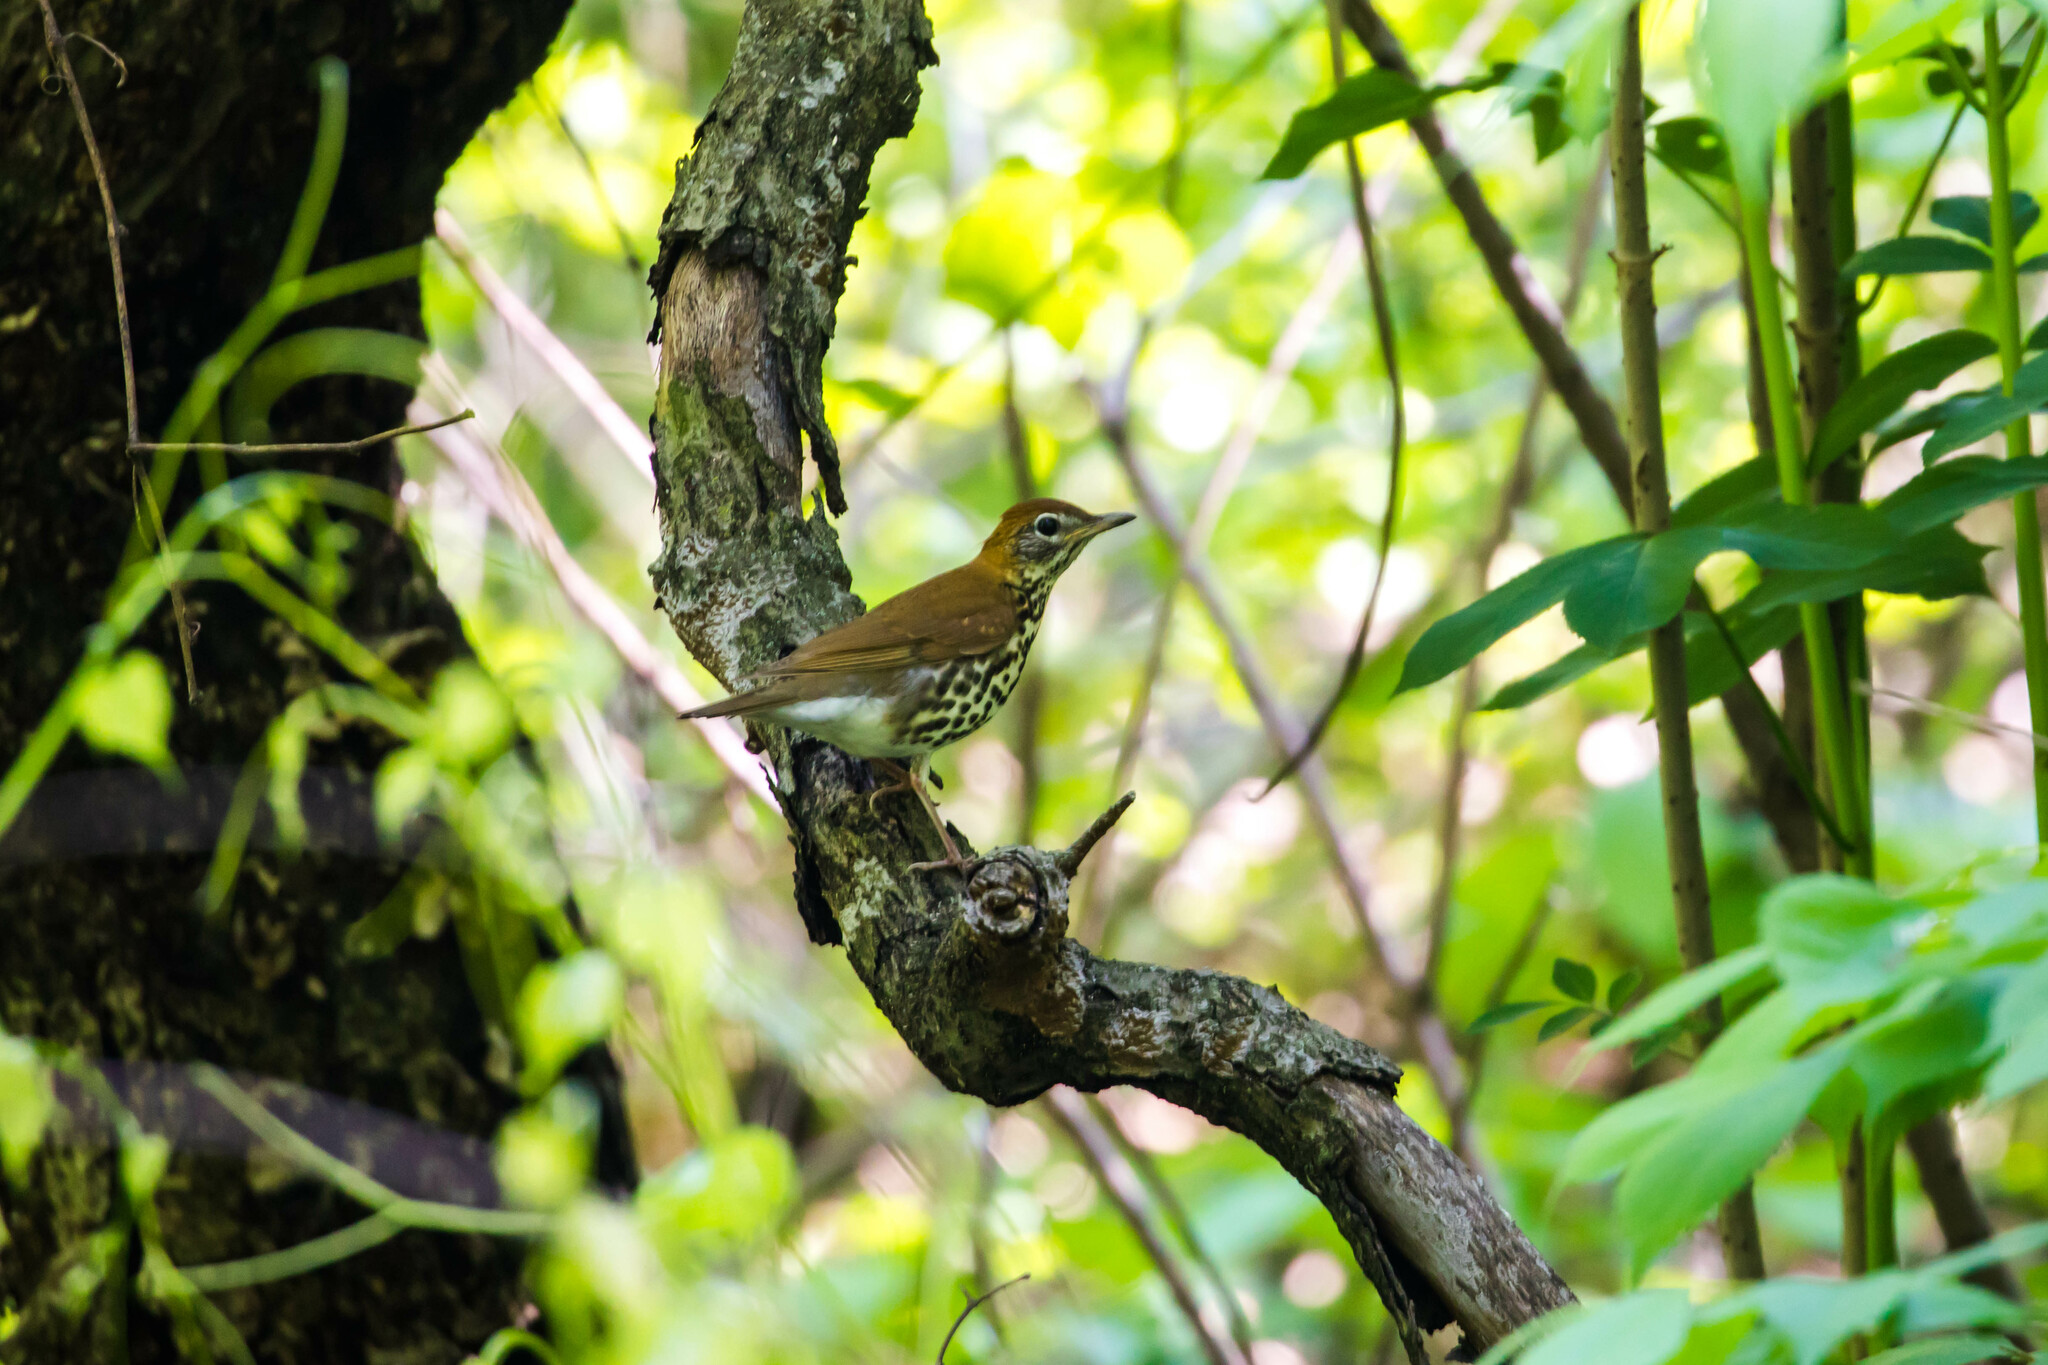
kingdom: Animalia
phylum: Chordata
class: Aves
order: Passeriformes
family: Turdidae
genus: Hylocichla
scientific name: Hylocichla mustelina
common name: Wood thrush
